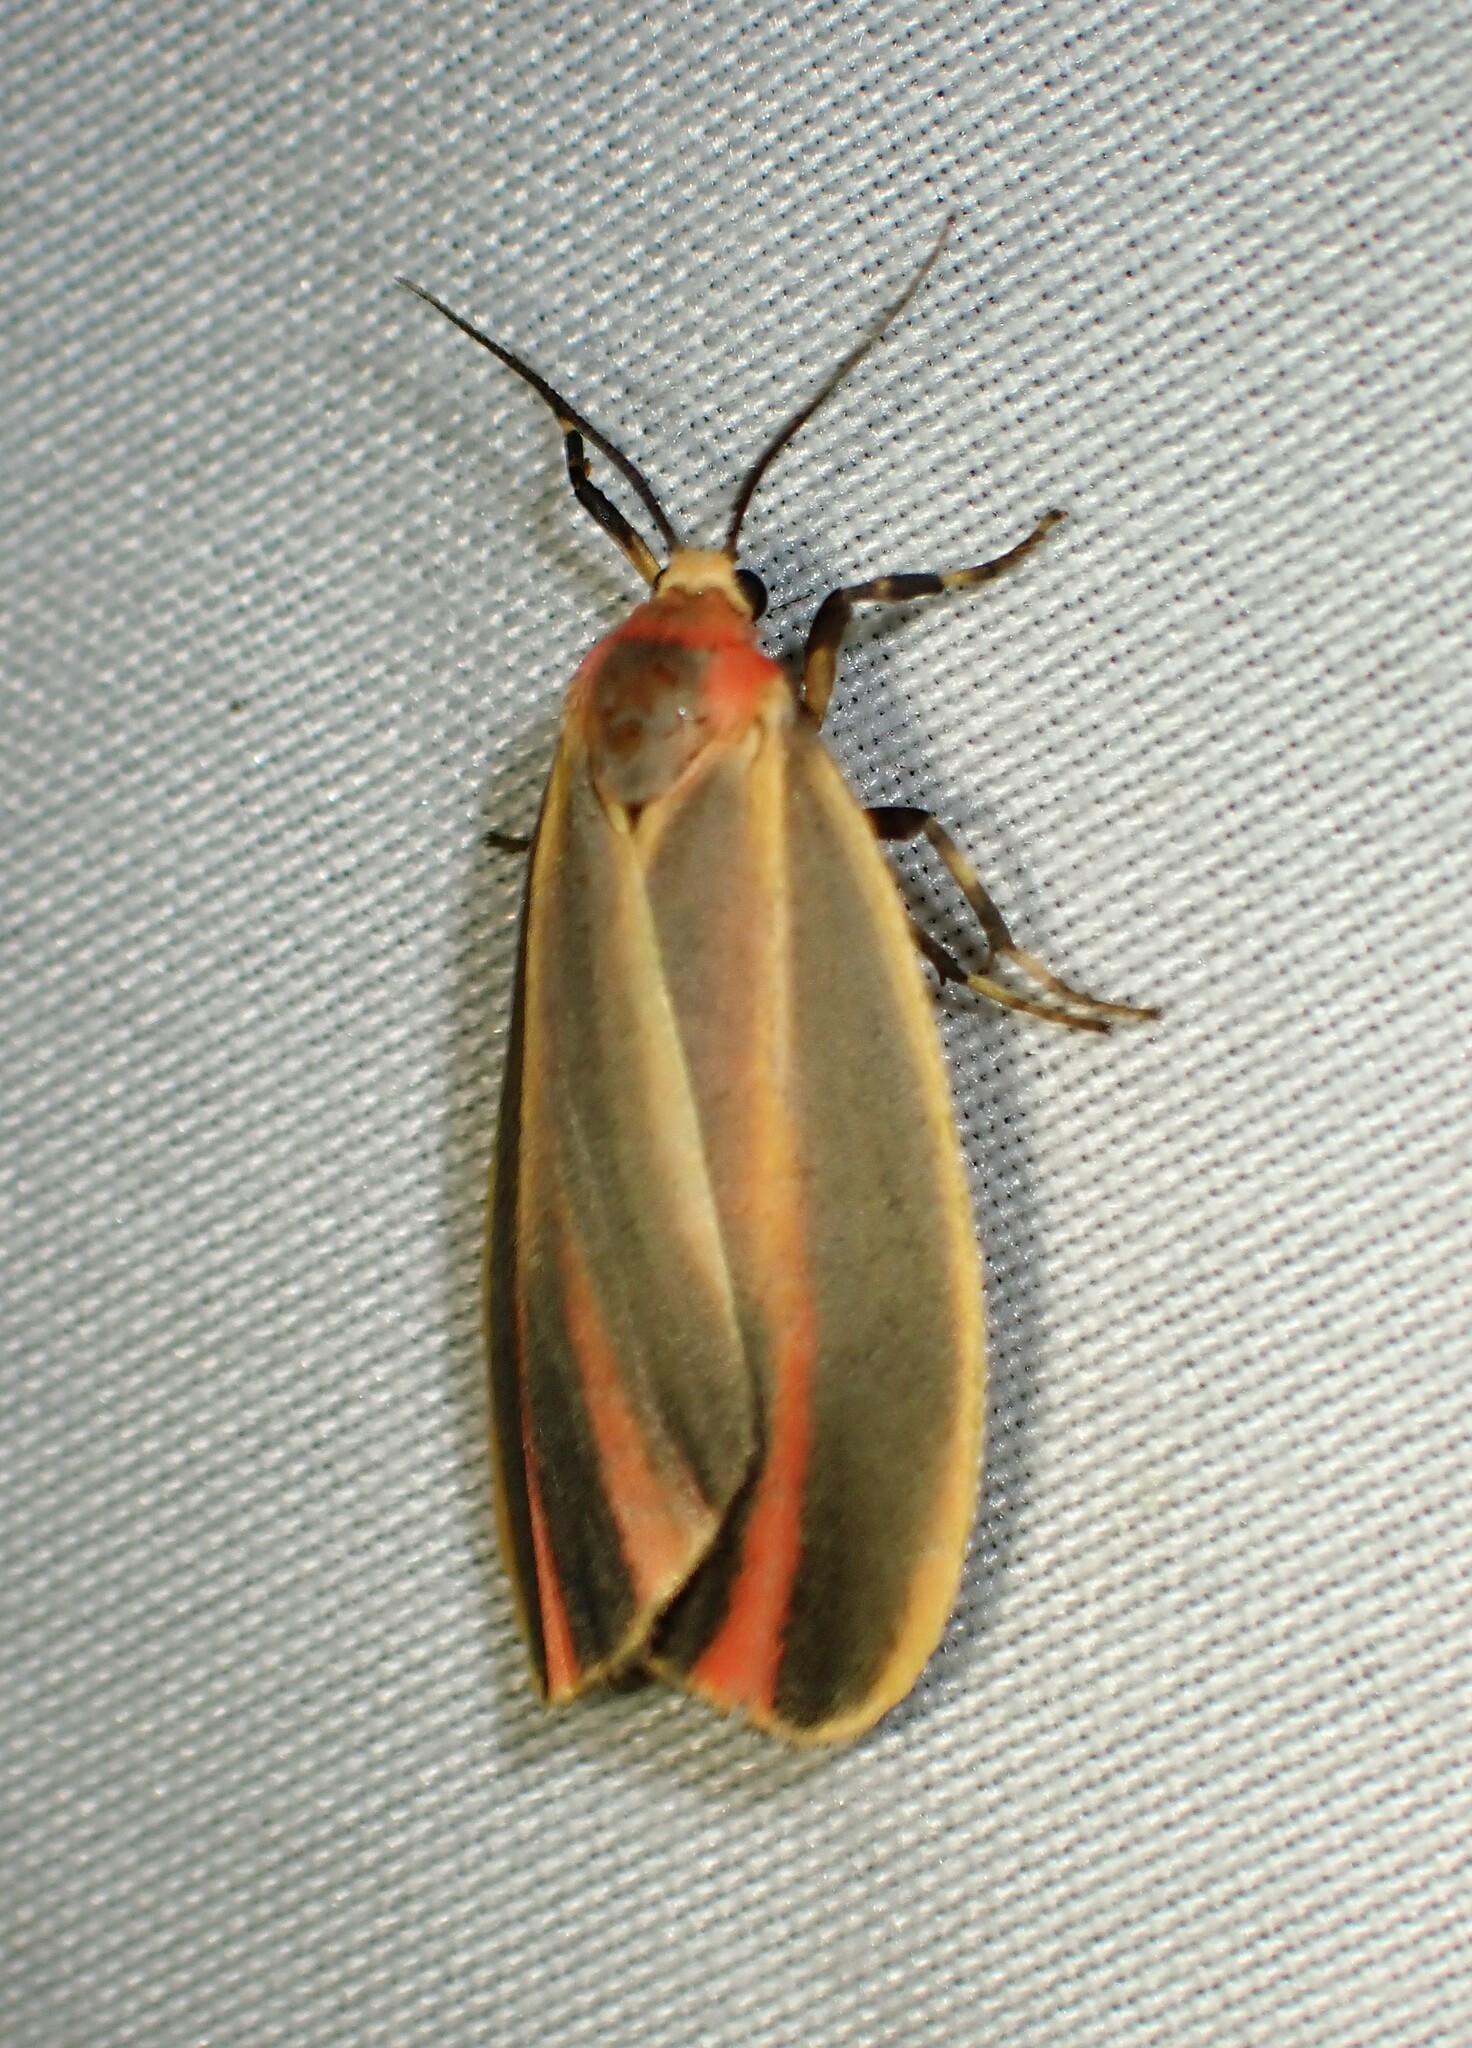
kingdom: Animalia
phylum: Arthropoda
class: Insecta
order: Lepidoptera
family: Erebidae
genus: Hypoprepia
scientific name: Hypoprepia fucosa
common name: Painted lichen moth
